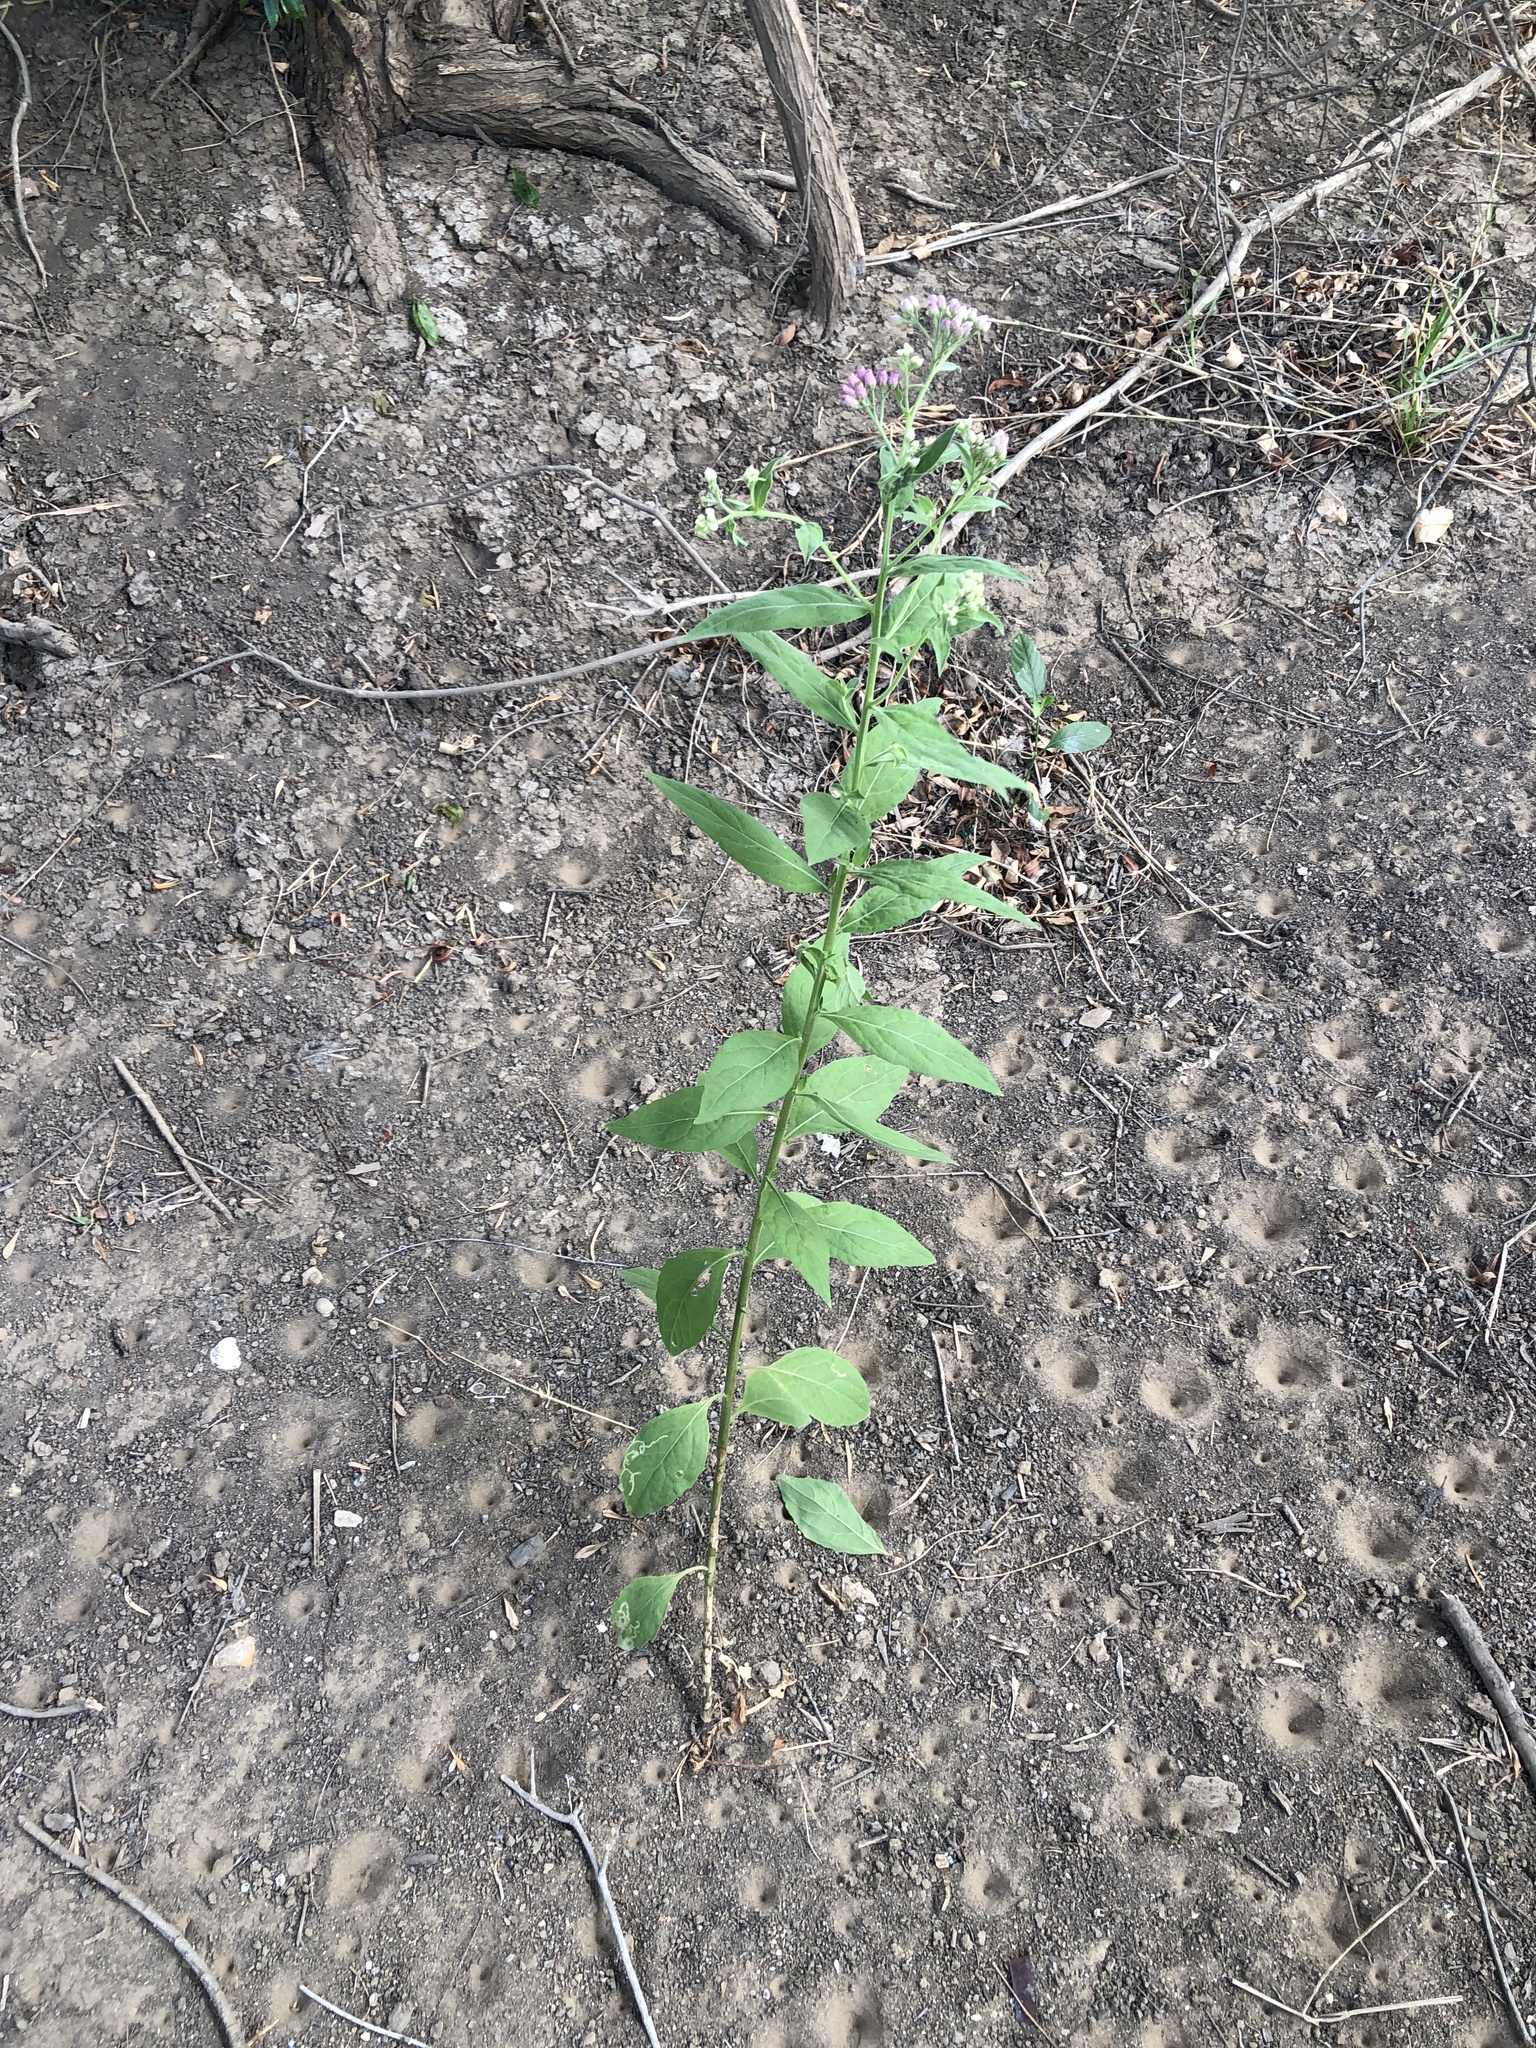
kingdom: Plantae
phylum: Tracheophyta
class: Magnoliopsida
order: Asterales
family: Asteraceae
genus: Pluchea
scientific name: Pluchea odorata
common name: Saltmarsh fleabane
